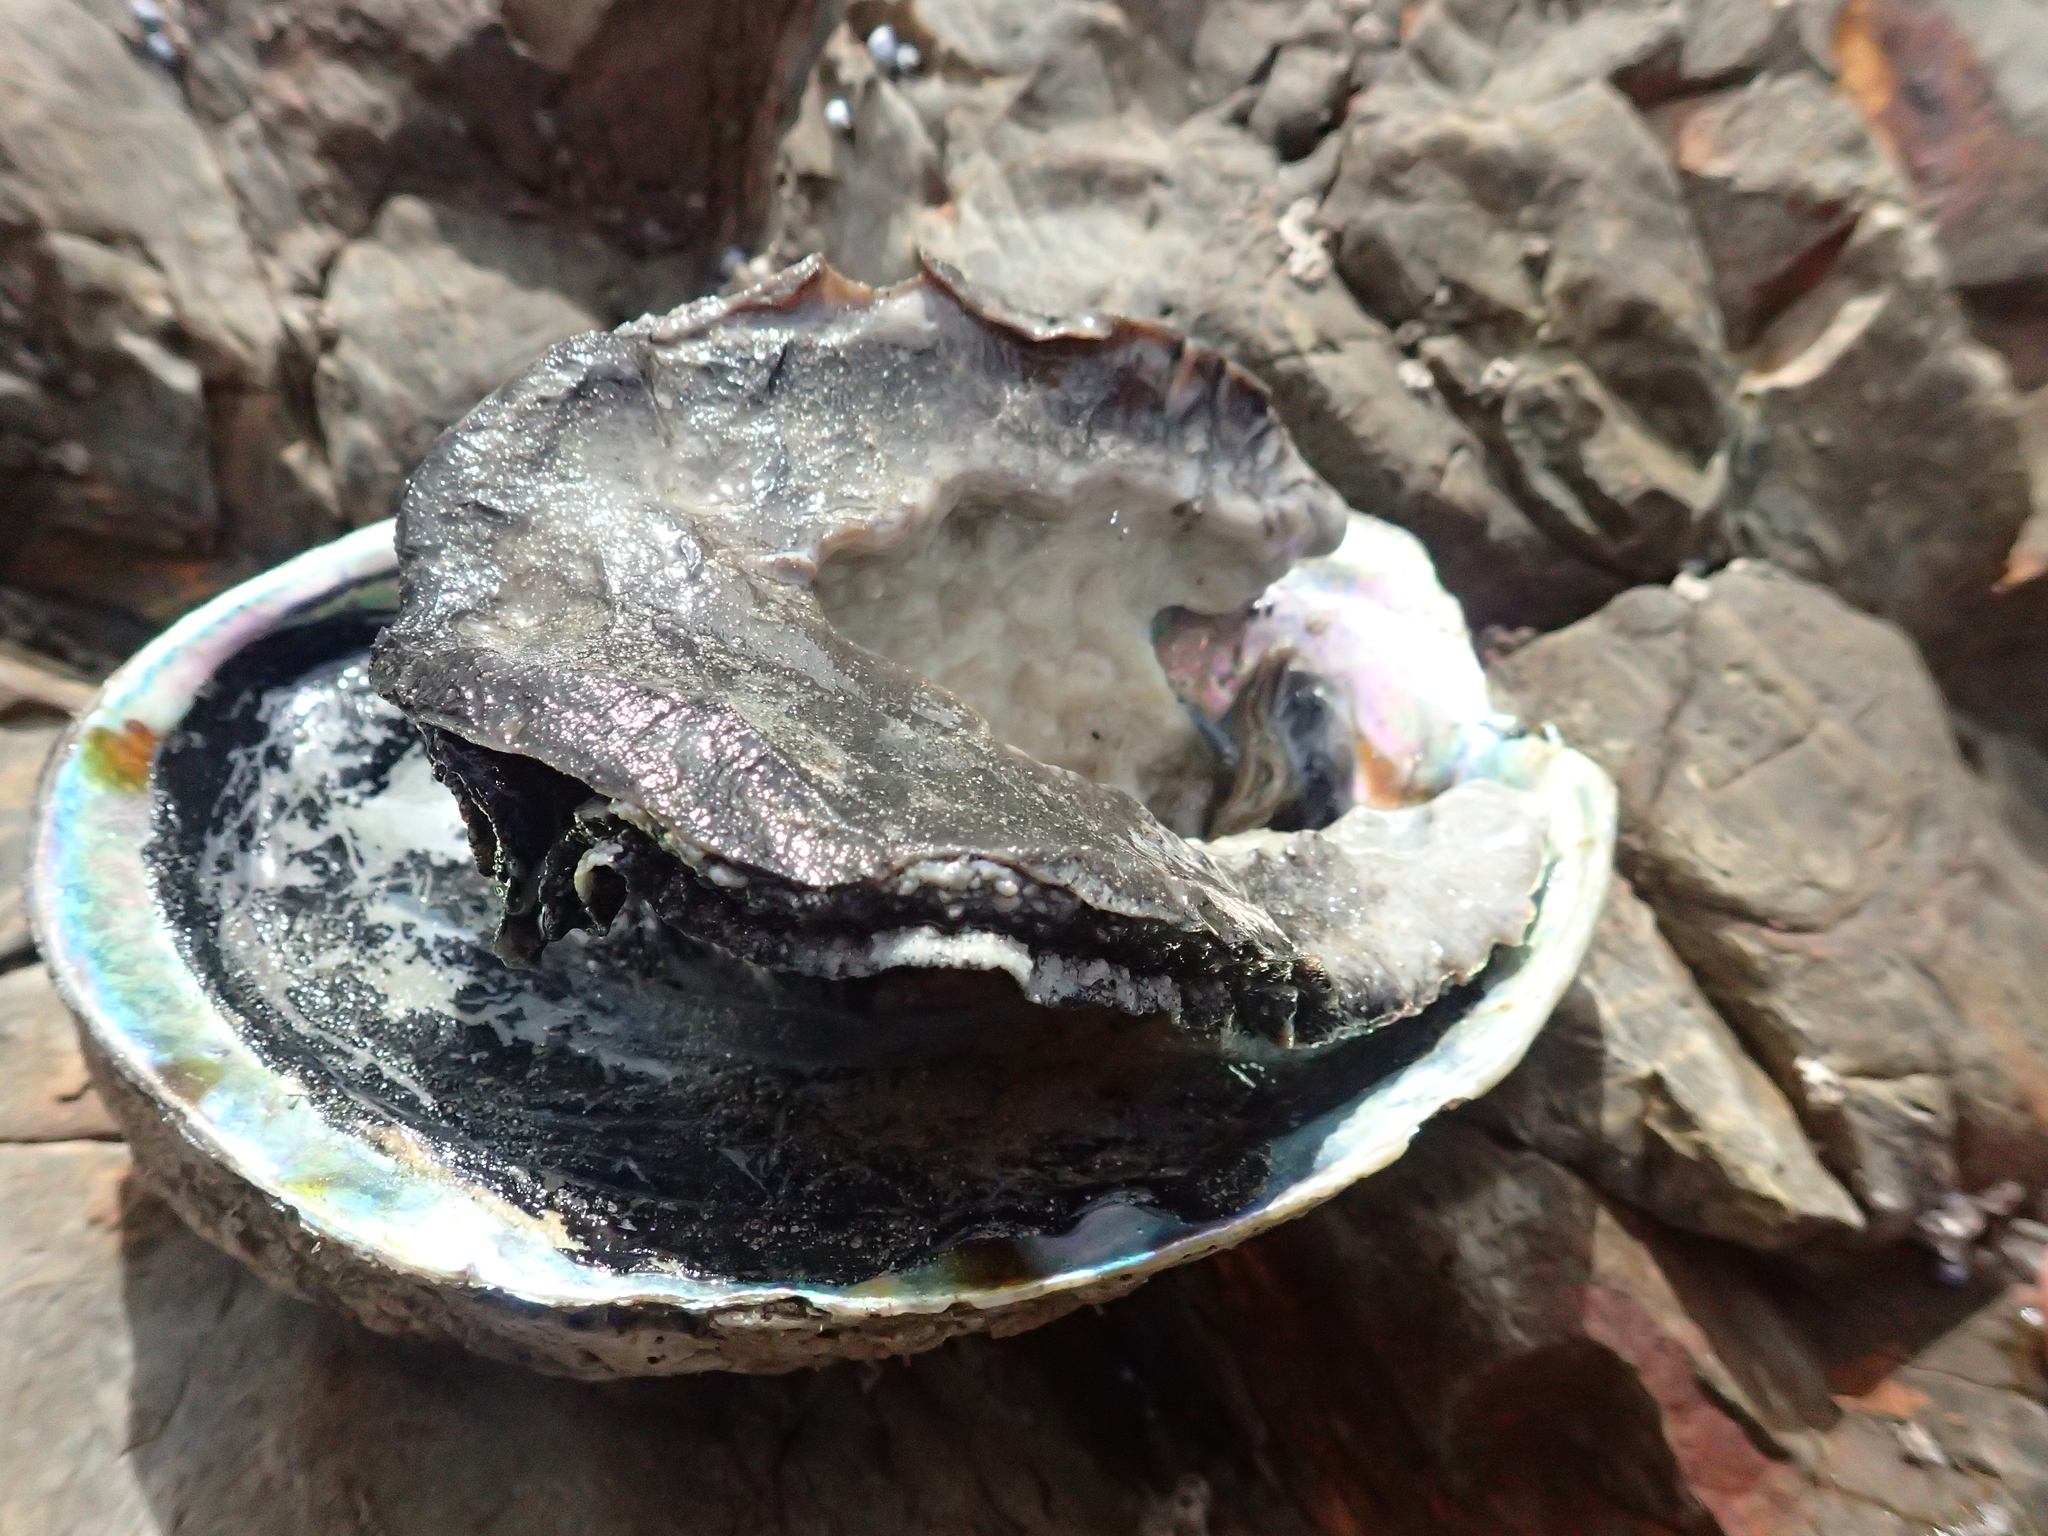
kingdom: Animalia
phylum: Mollusca
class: Gastropoda
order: Lepetellida
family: Haliotidae
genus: Haliotis
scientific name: Haliotis iris
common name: Abalone
